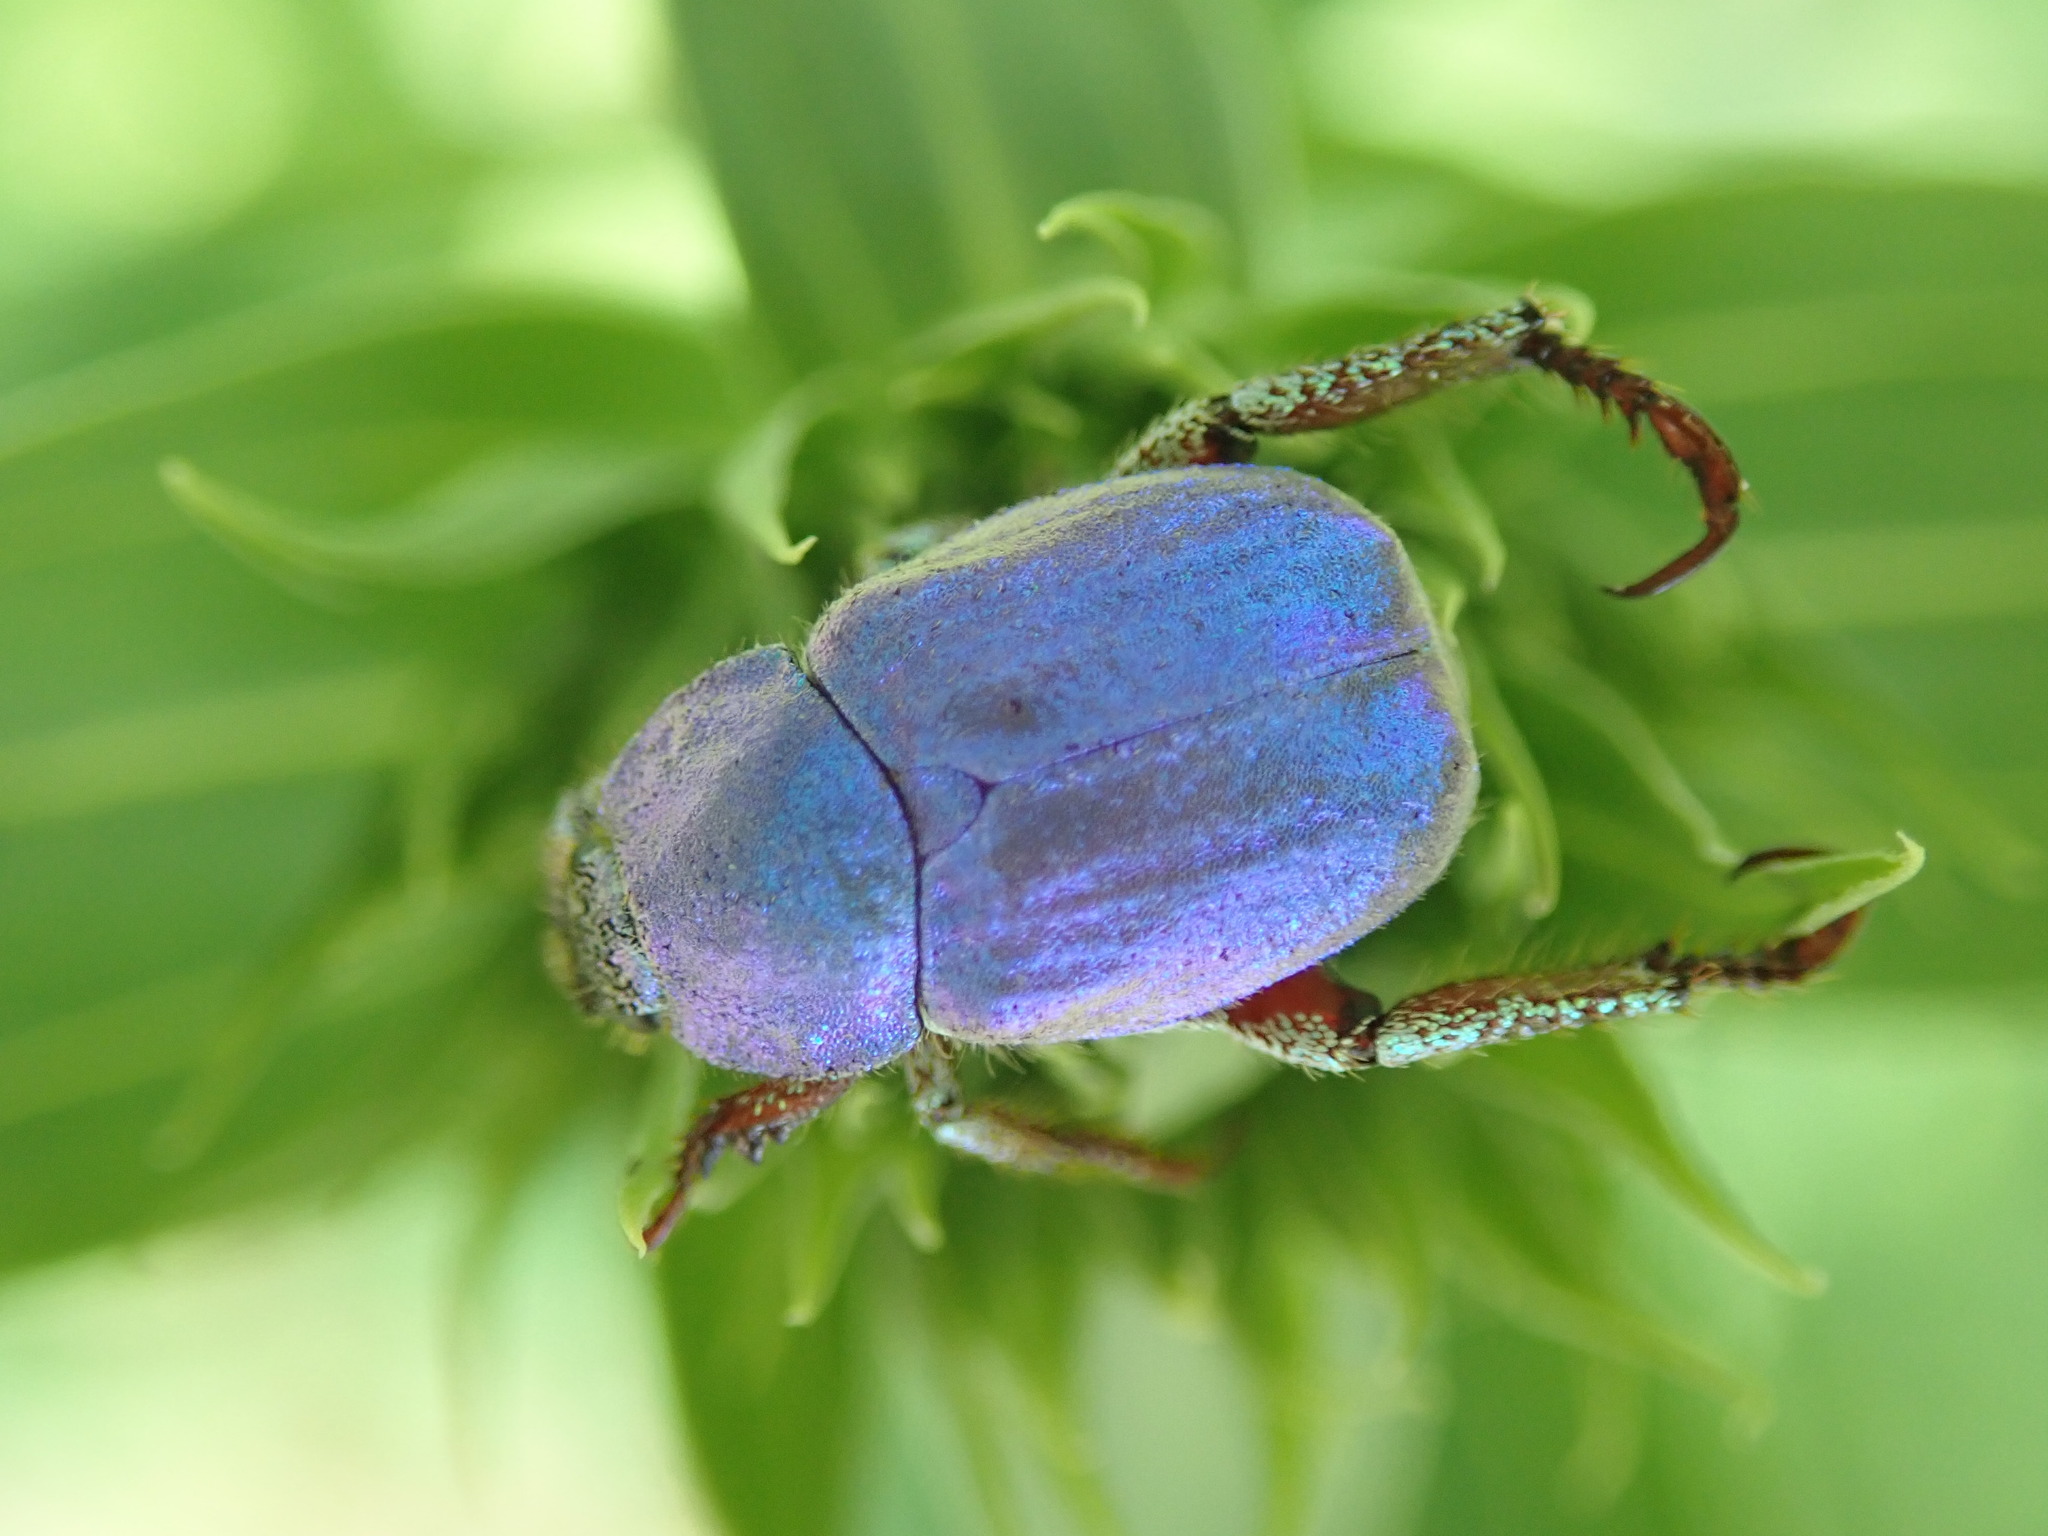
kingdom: Animalia
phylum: Arthropoda
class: Insecta
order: Coleoptera
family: Scarabaeidae
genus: Hoplia
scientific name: Hoplia coerulea
